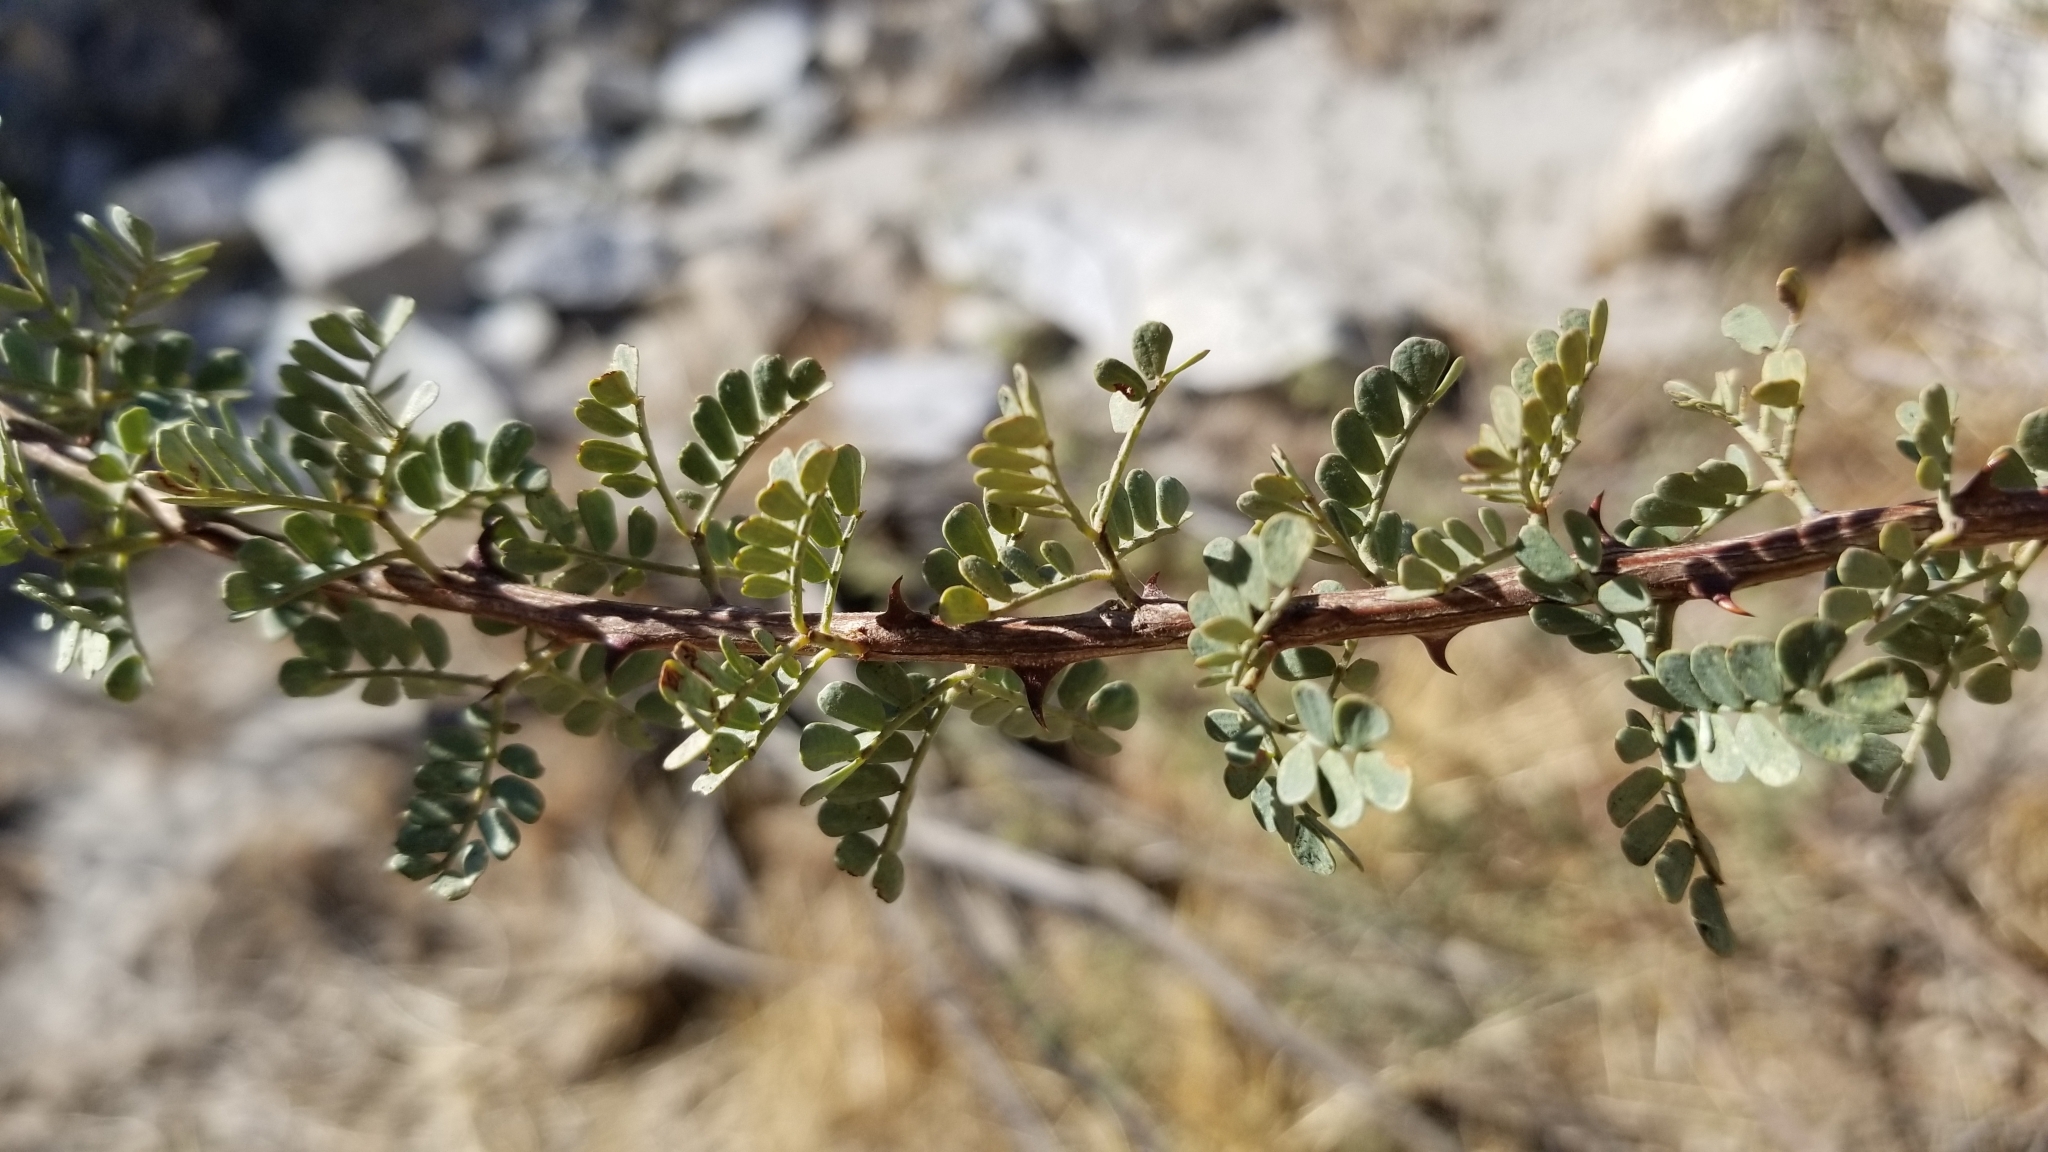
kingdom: Plantae
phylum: Tracheophyta
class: Magnoliopsida
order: Fabales
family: Fabaceae
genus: Senegalia
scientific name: Senegalia greggii
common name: Texas-mimosa
